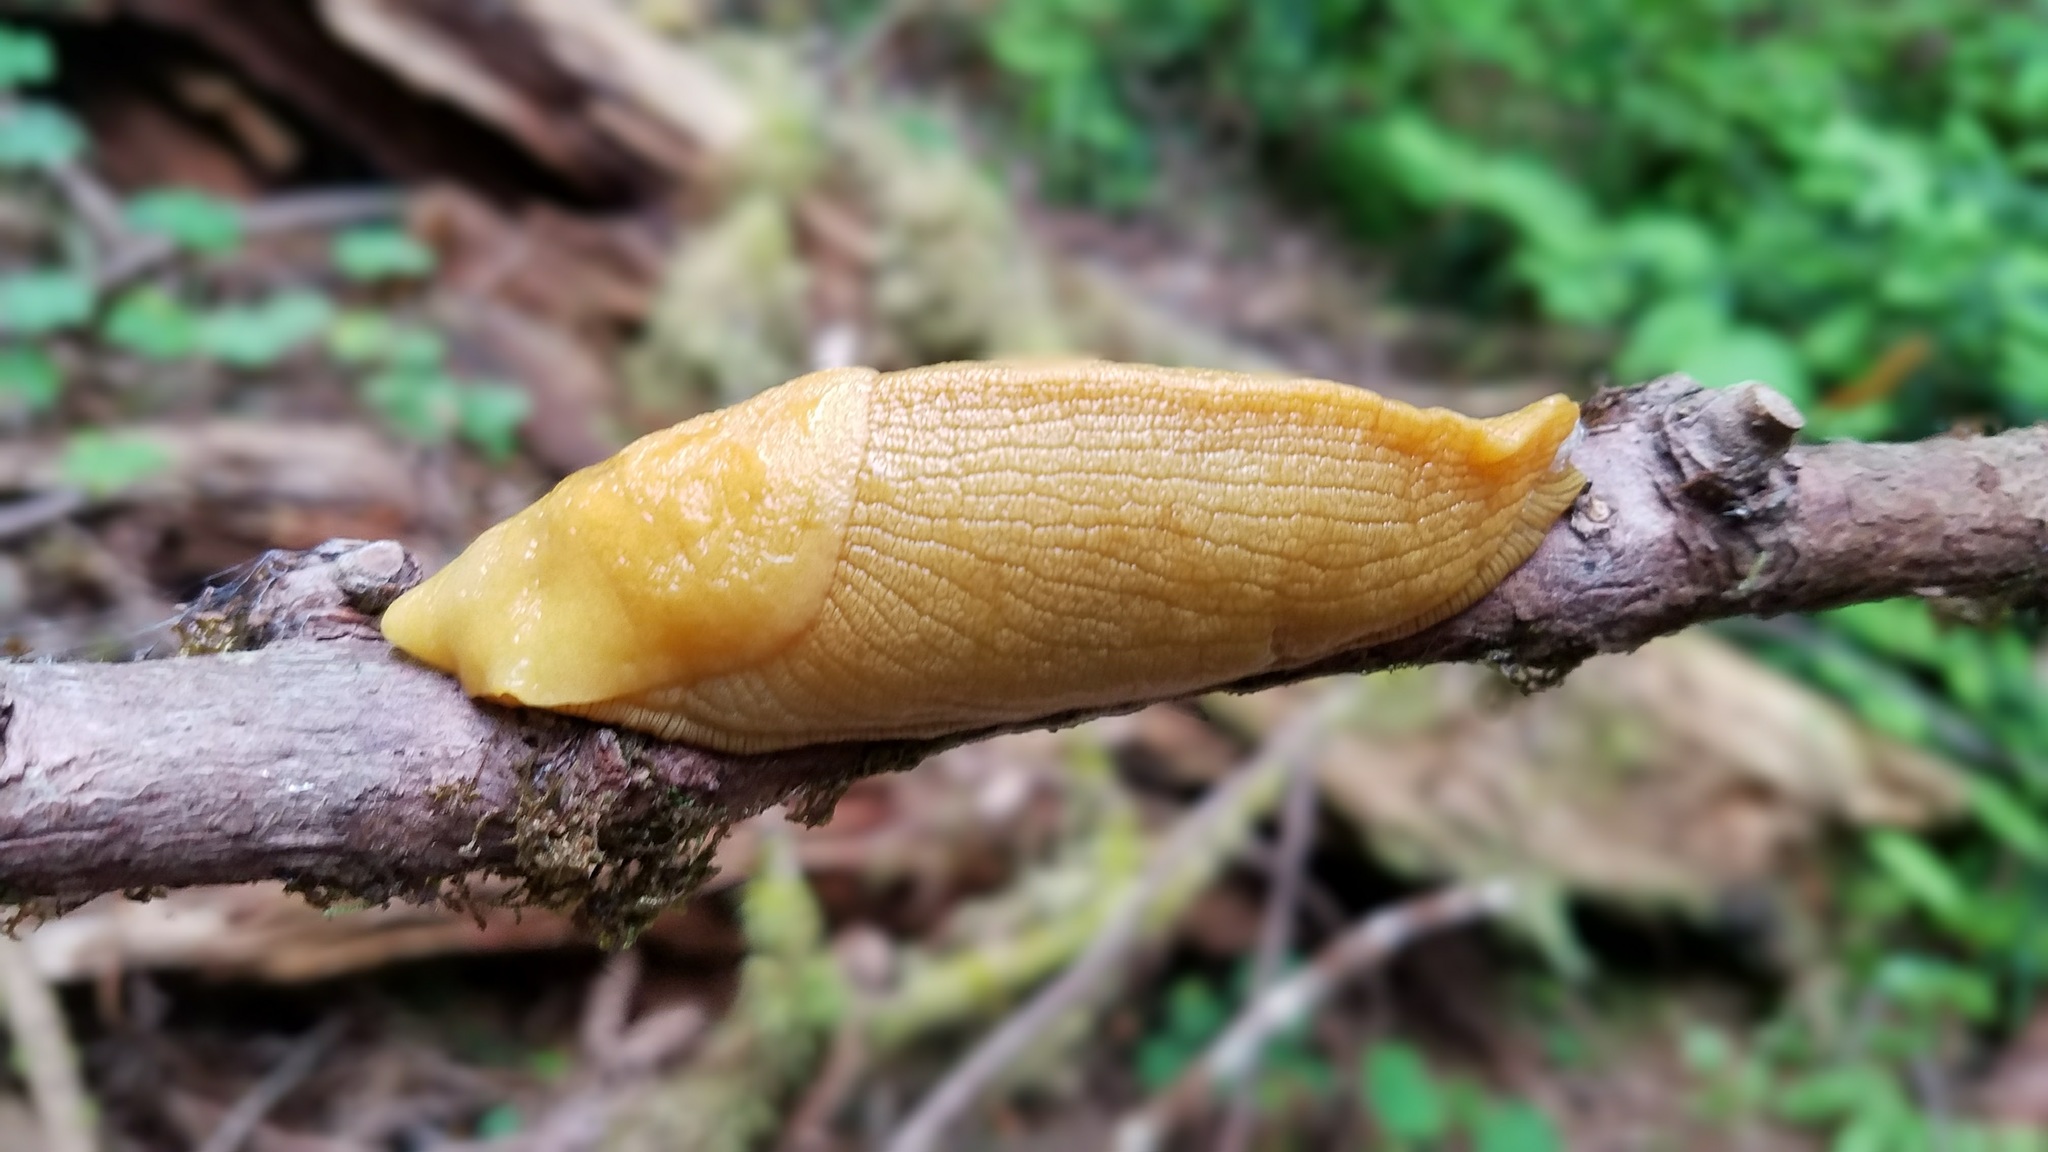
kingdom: Animalia
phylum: Mollusca
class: Gastropoda
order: Stylommatophora
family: Ariolimacidae
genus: Ariolimax
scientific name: Ariolimax columbianus
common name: Pacific banana slug
